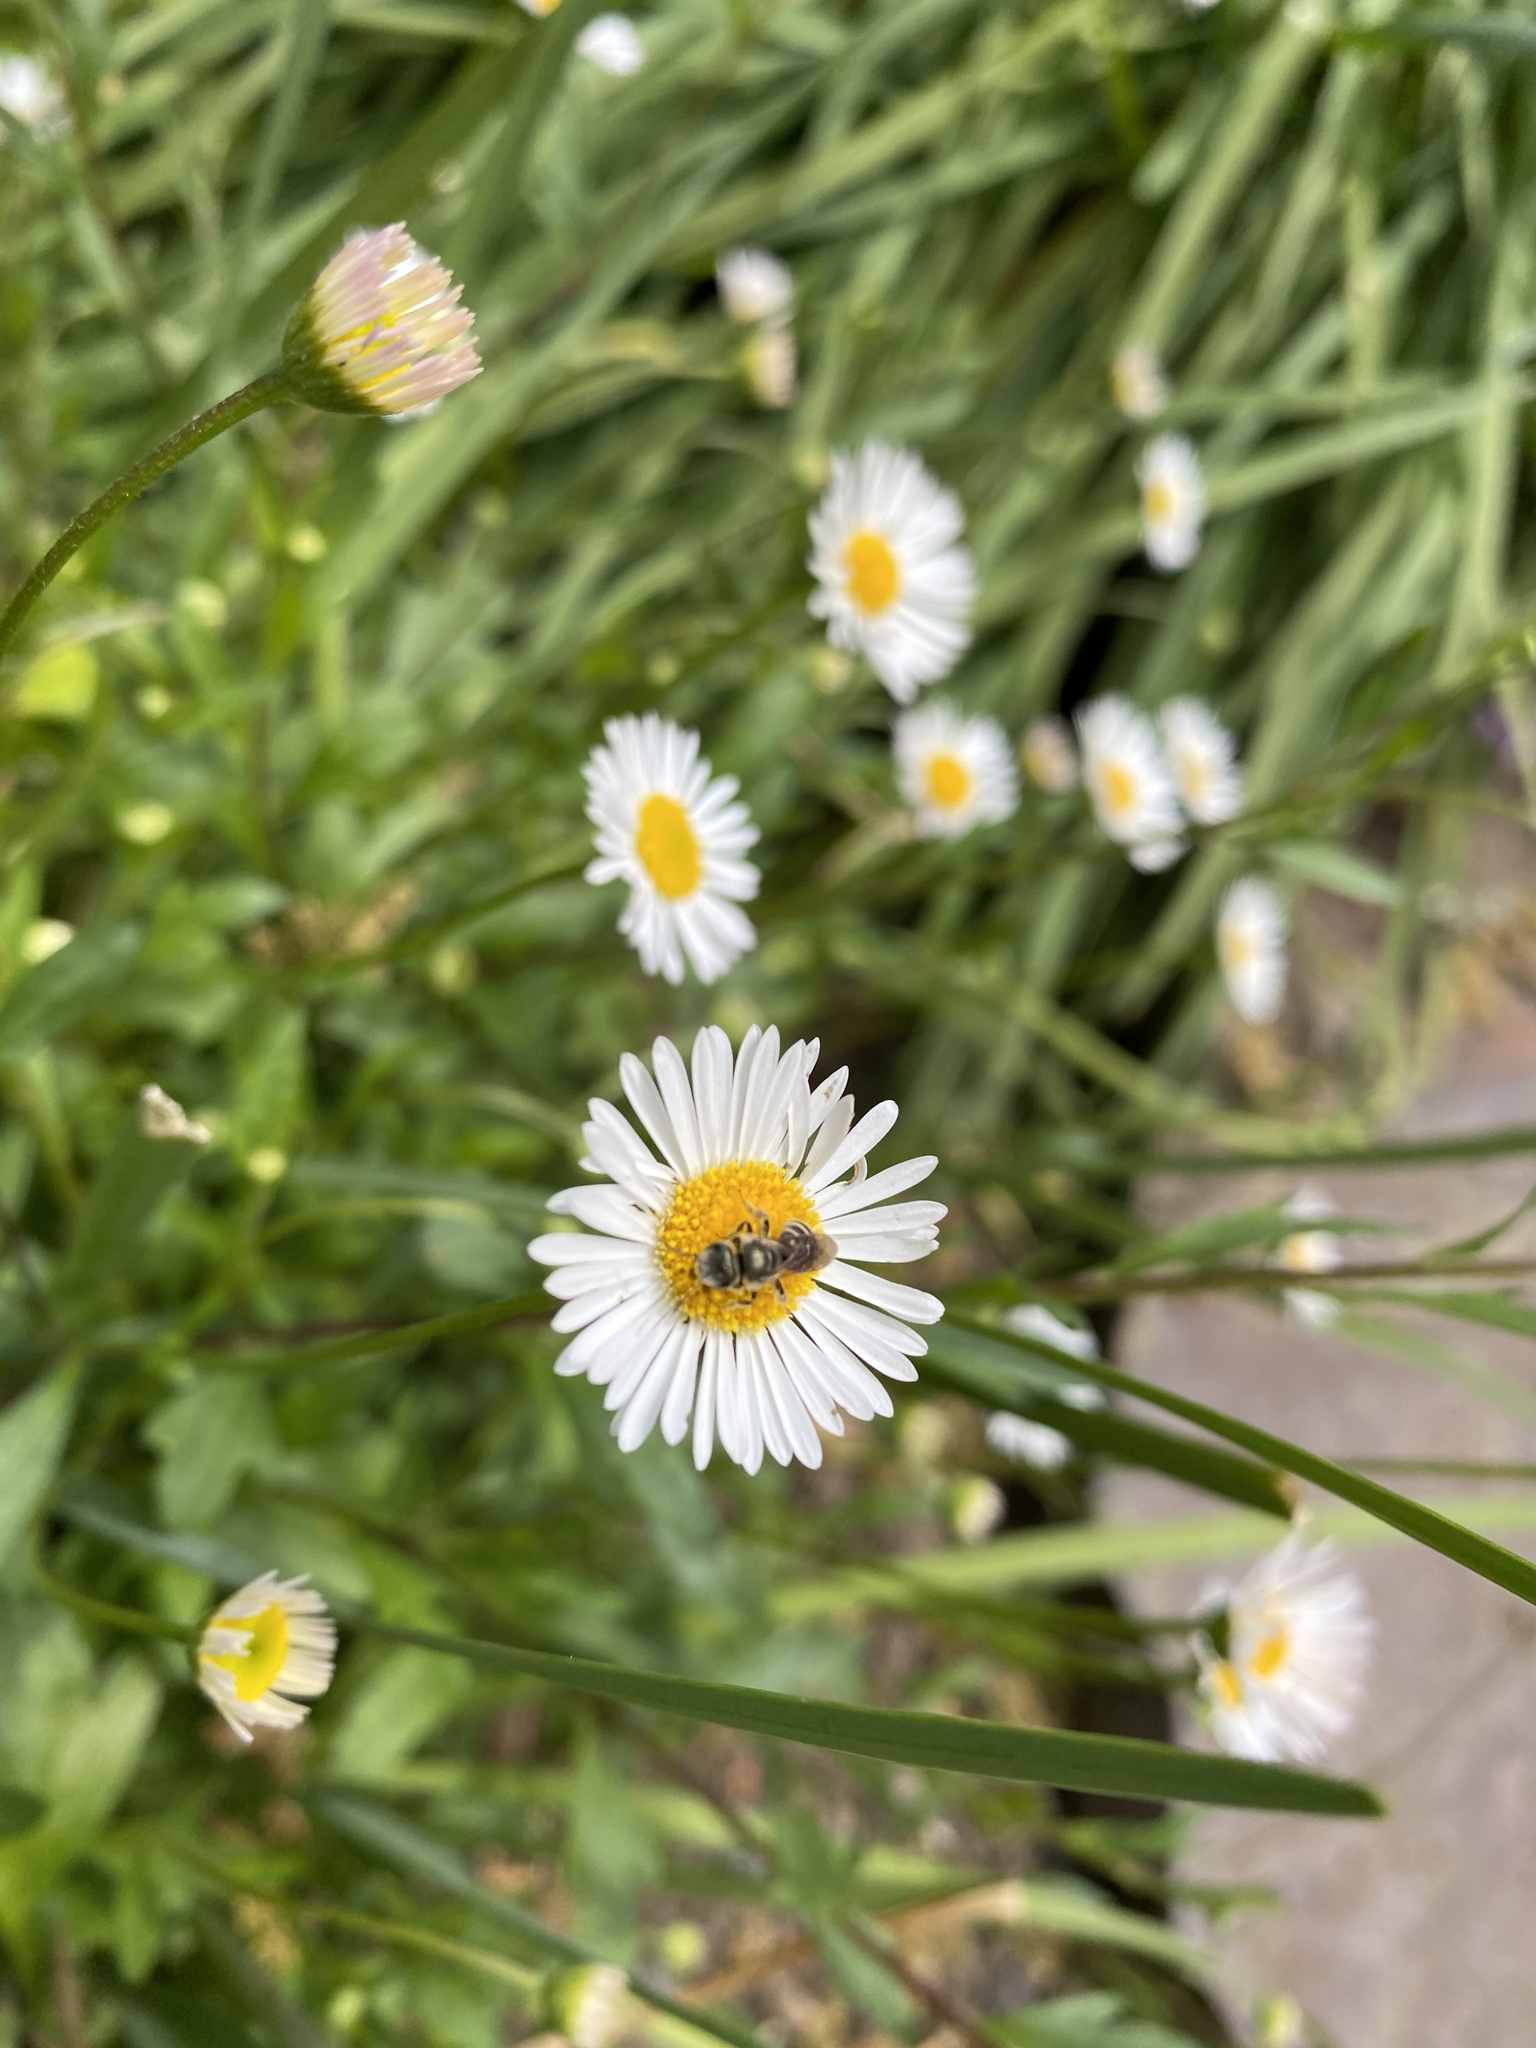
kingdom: Animalia
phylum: Arthropoda
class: Insecta
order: Hymenoptera
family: Halictidae
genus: Halictus
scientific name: Halictus tripartitus
